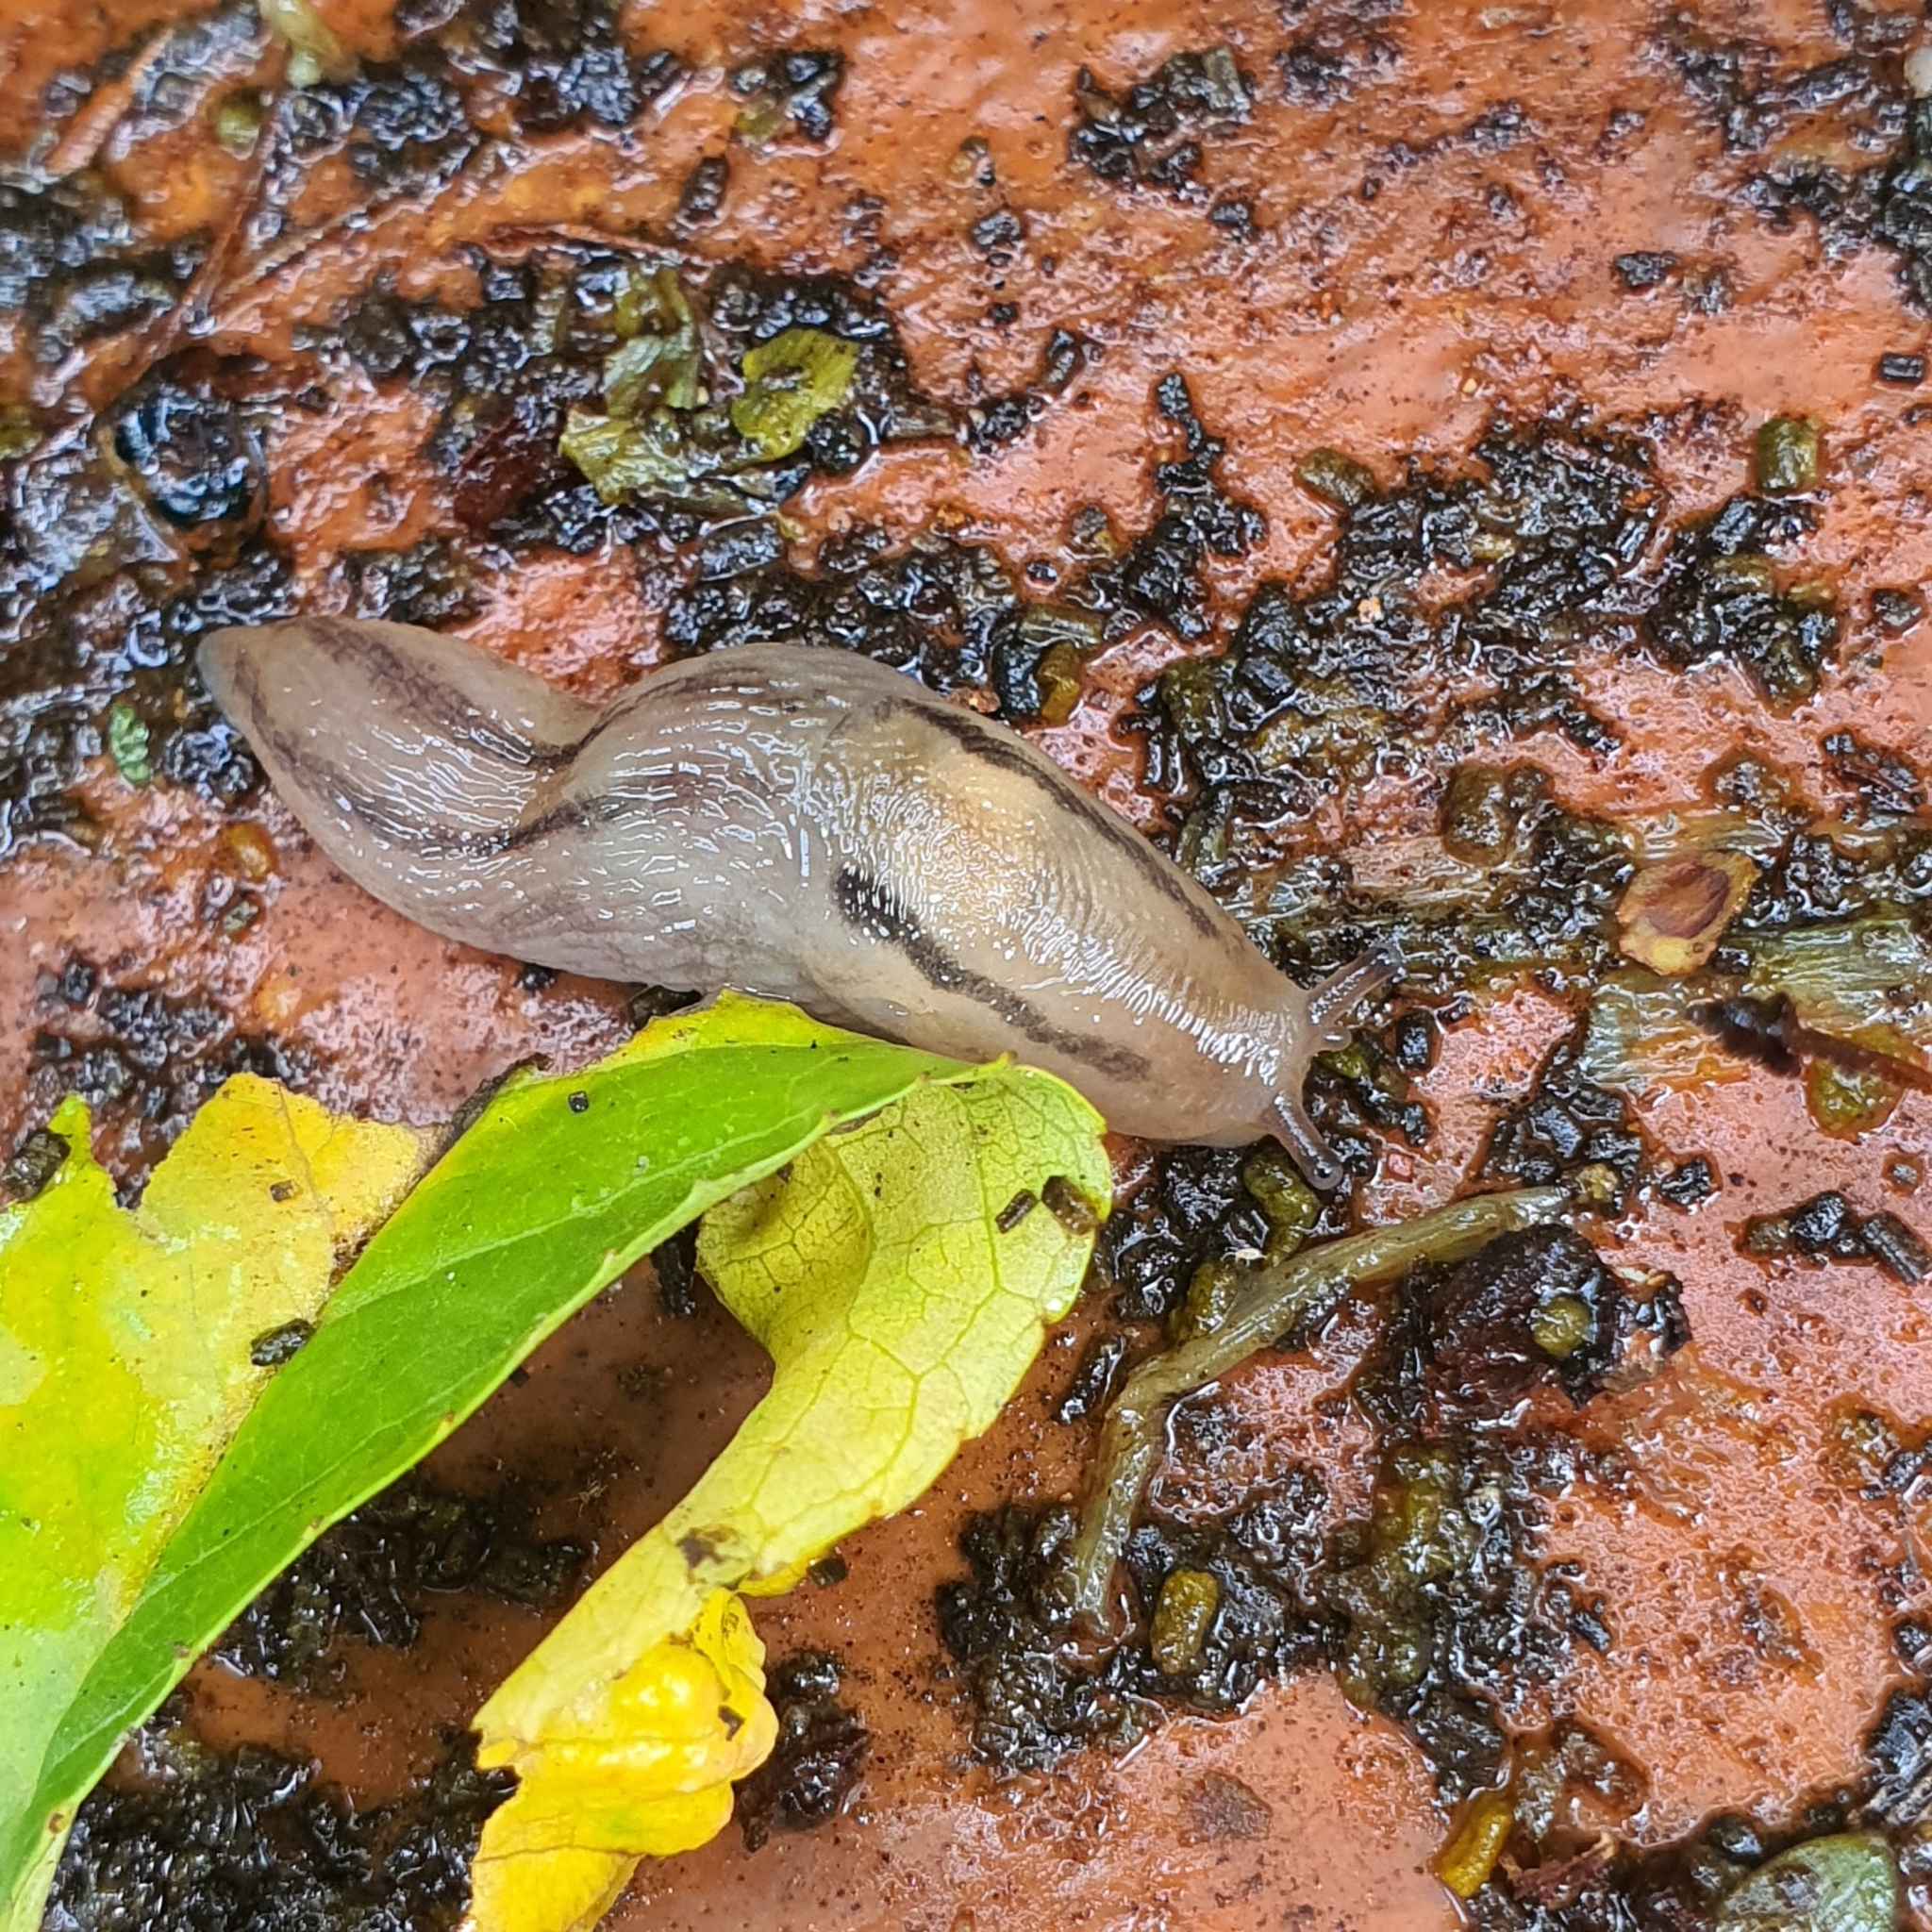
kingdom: Animalia
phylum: Mollusca
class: Gastropoda
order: Stylommatophora
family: Limacidae
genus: Ambigolimax
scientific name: Ambigolimax
